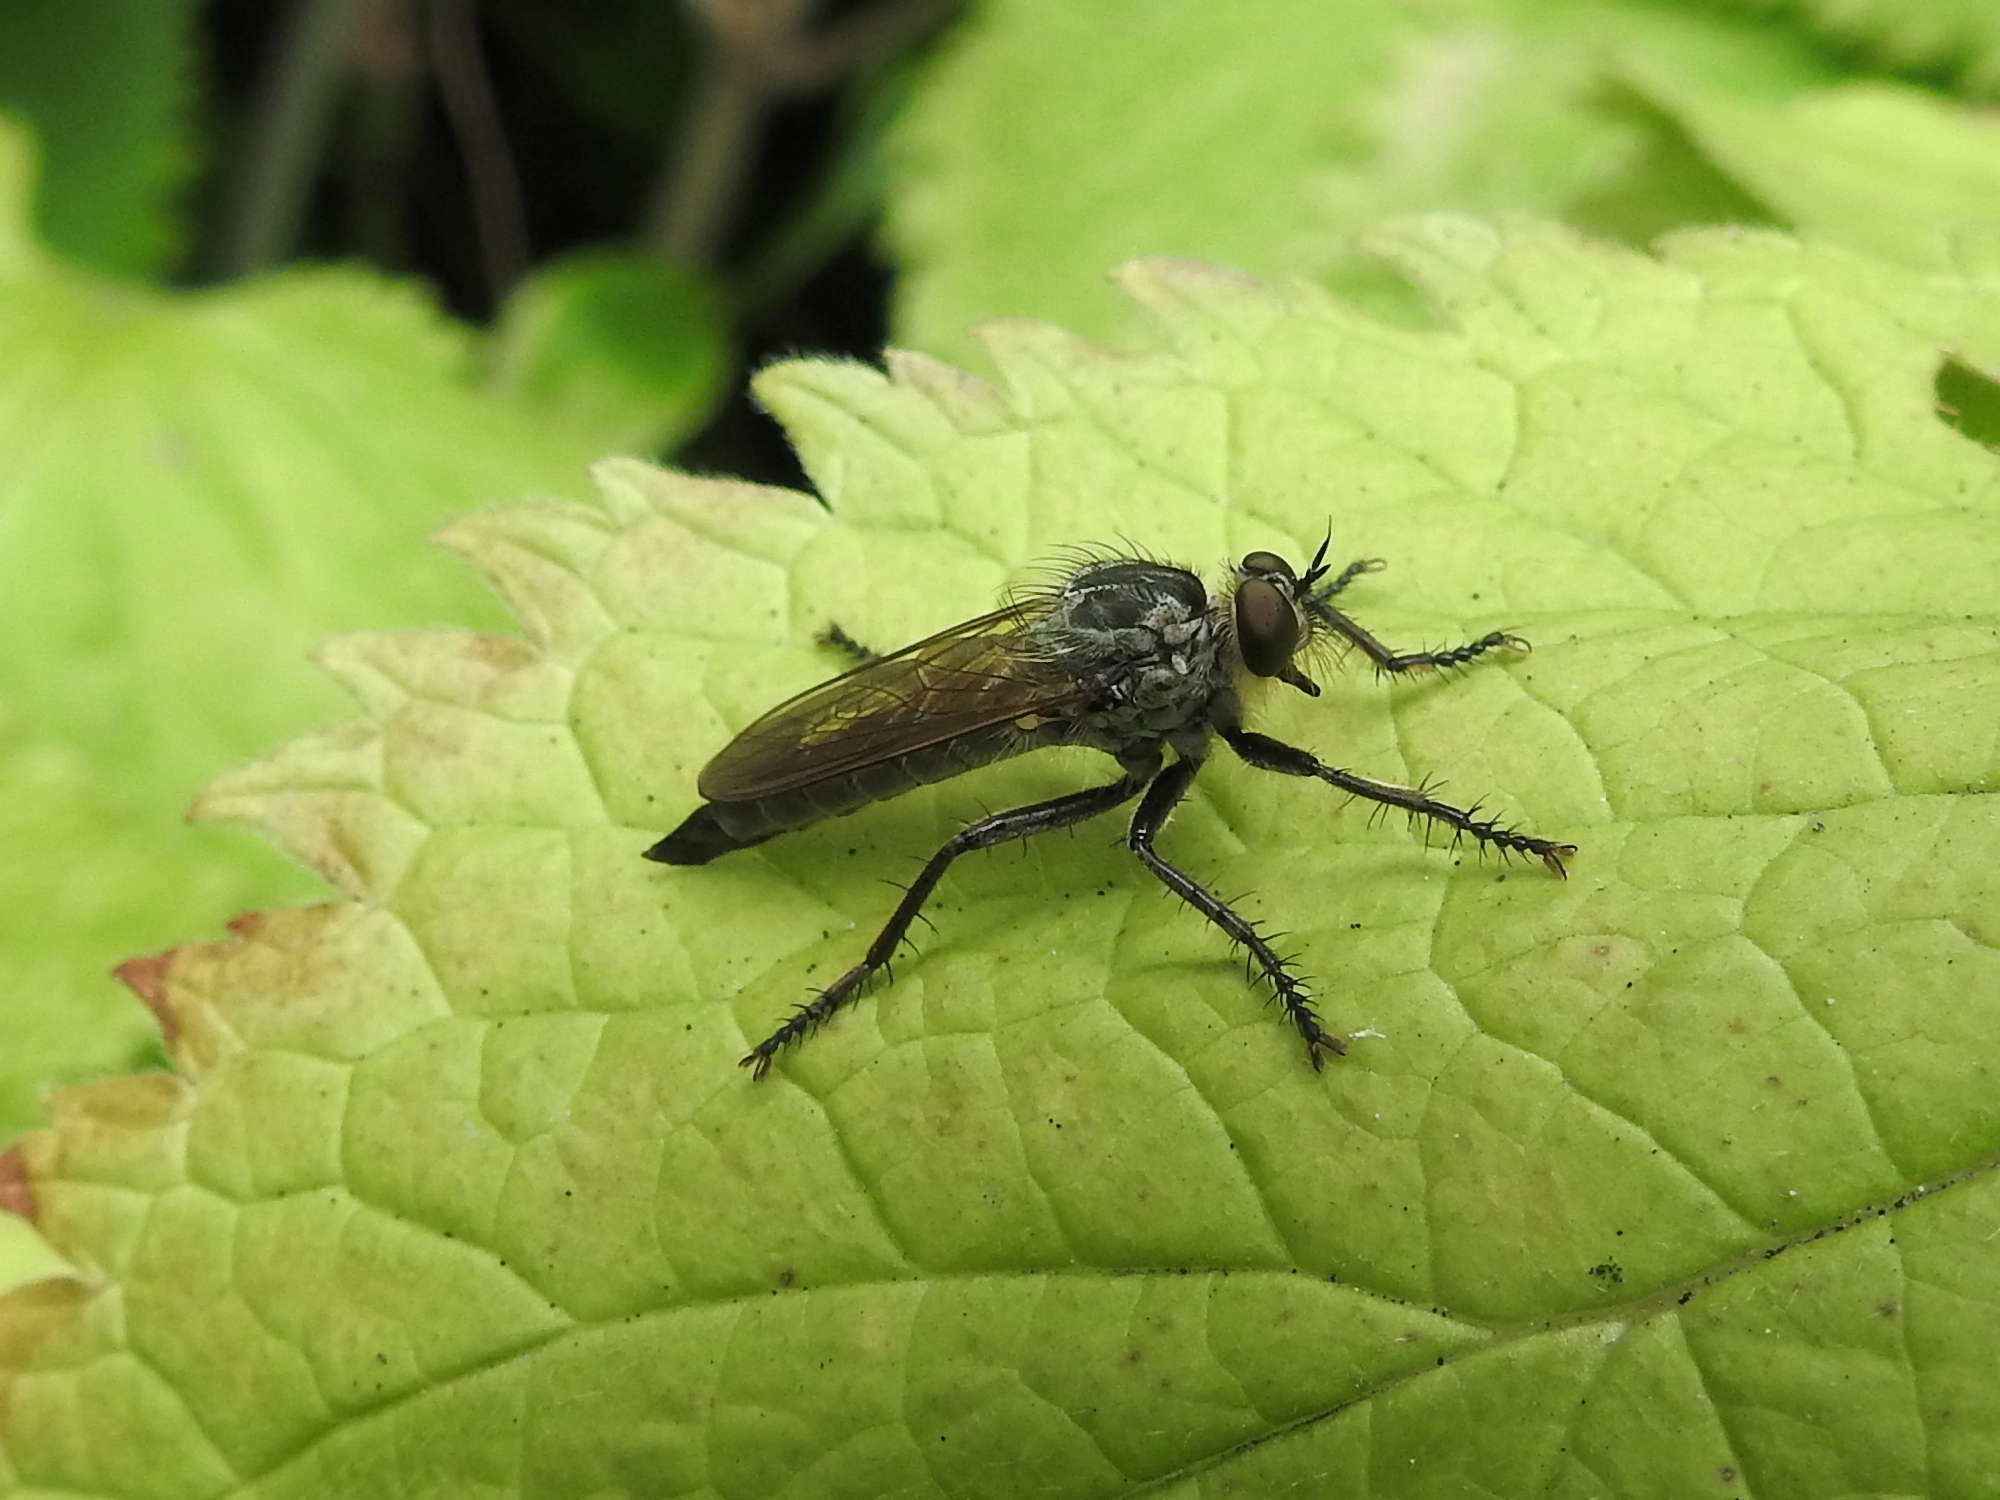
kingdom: Animalia
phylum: Arthropoda
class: Insecta
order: Diptera
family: Asilidae
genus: Eutolmus
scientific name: Eutolmus rufibarbis
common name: Golden-tabbed robberfly
